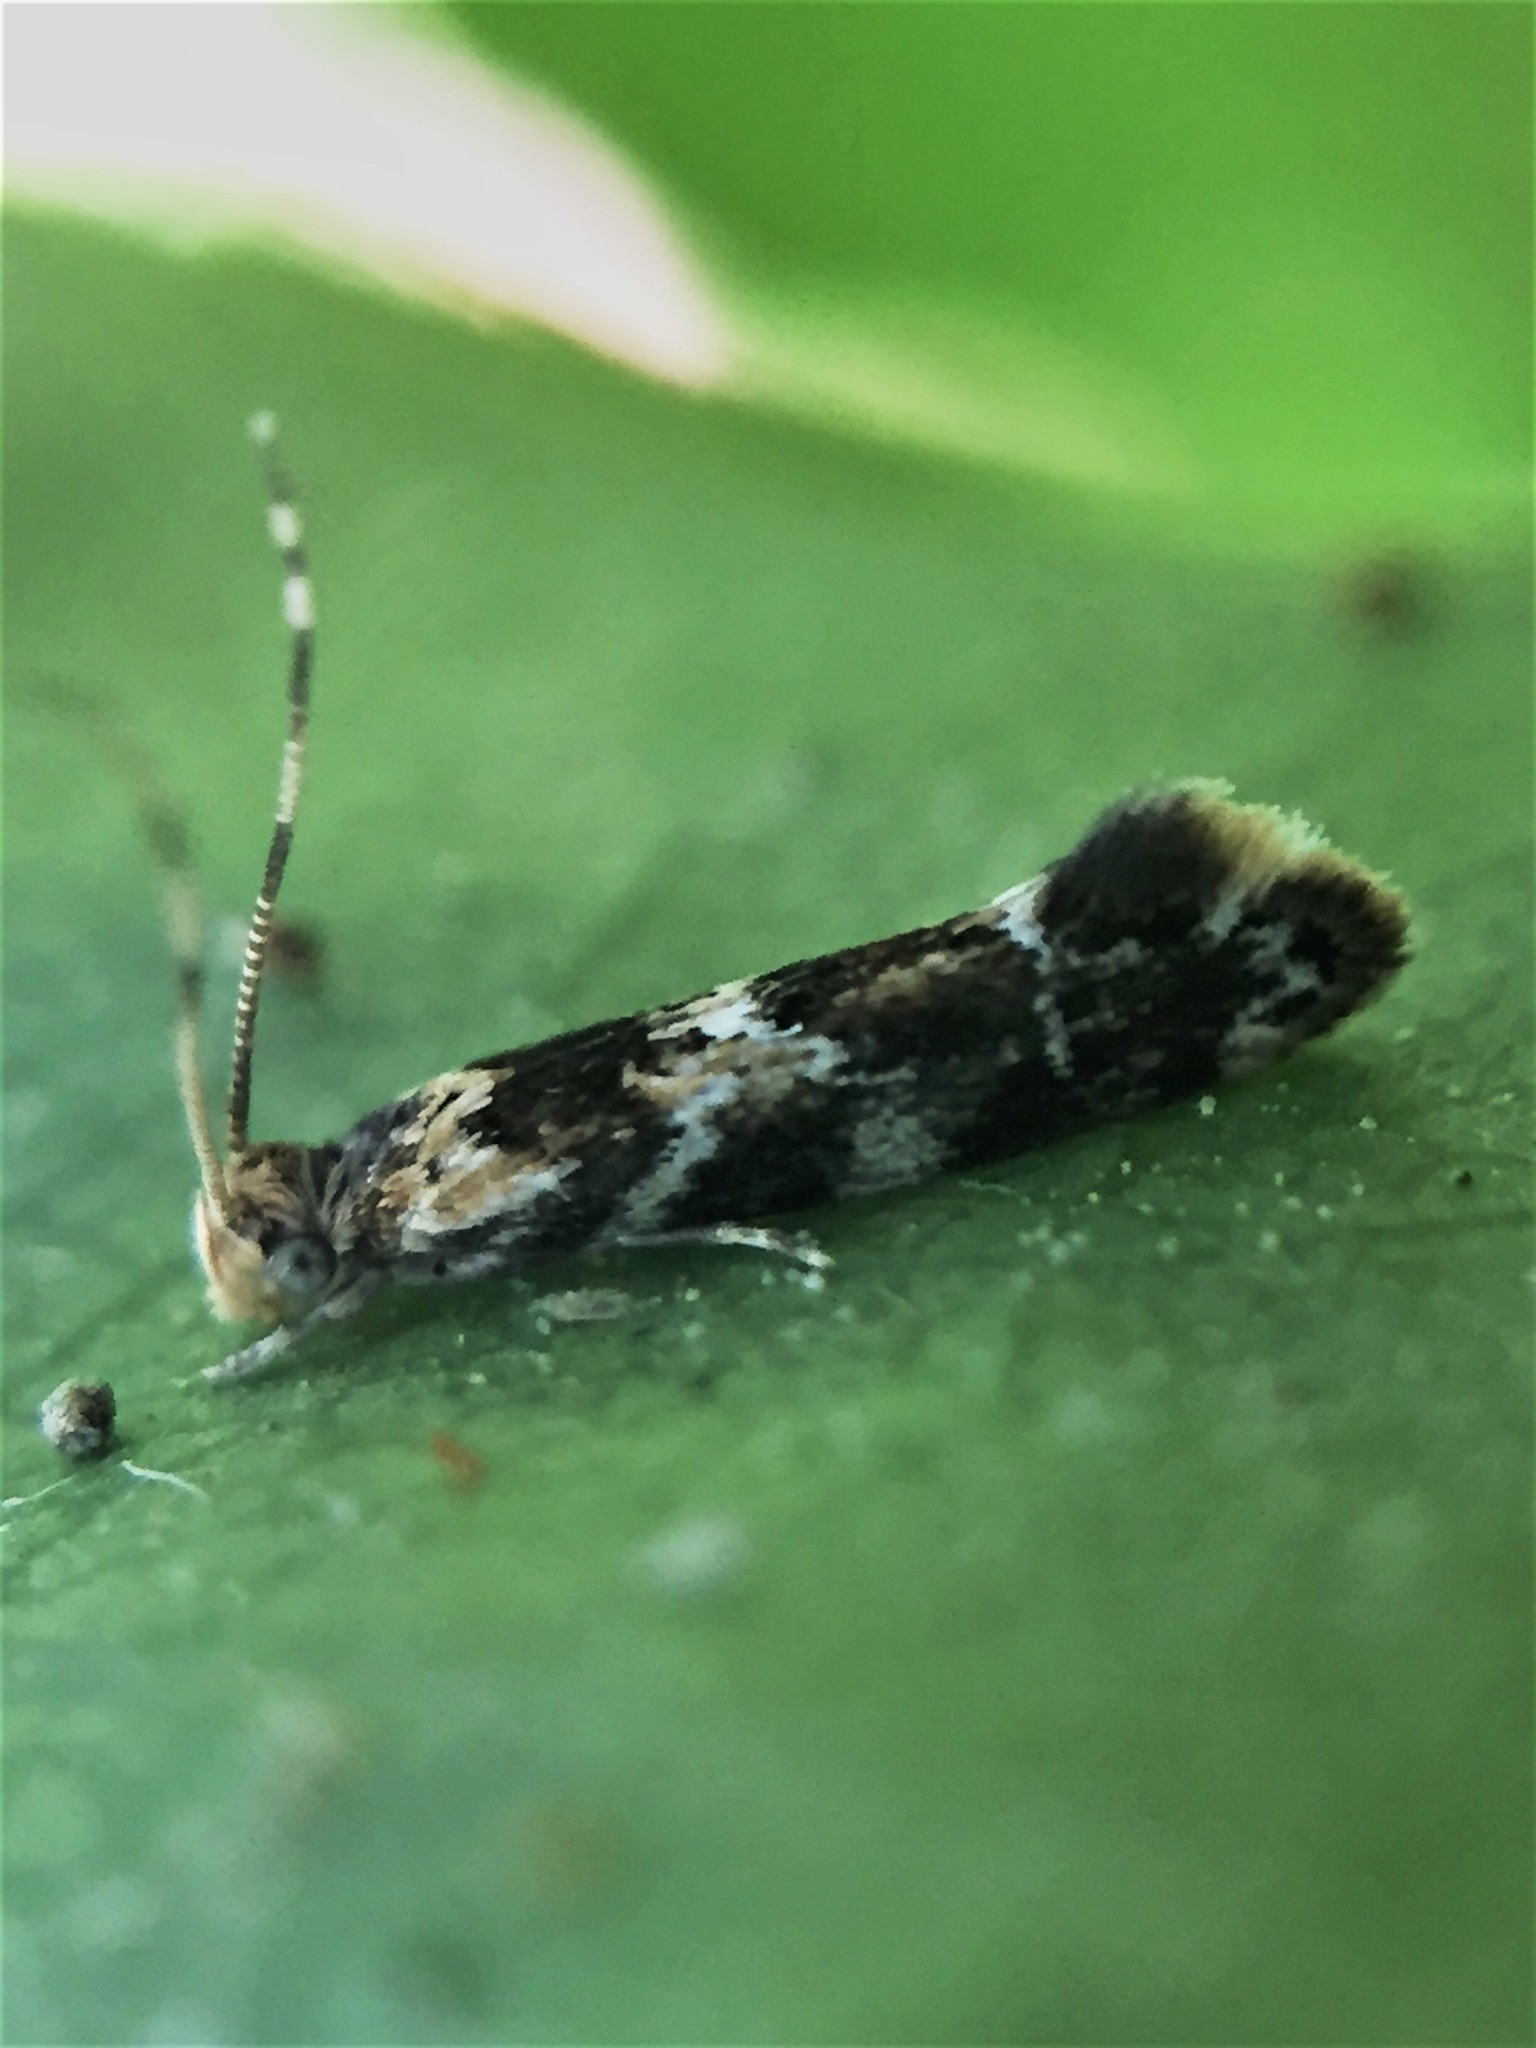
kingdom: Animalia
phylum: Arthropoda
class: Insecta
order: Lepidoptera
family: Dryadaulidae
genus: Dryadaula
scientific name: Dryadaula pactolia
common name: Cellar clothes
